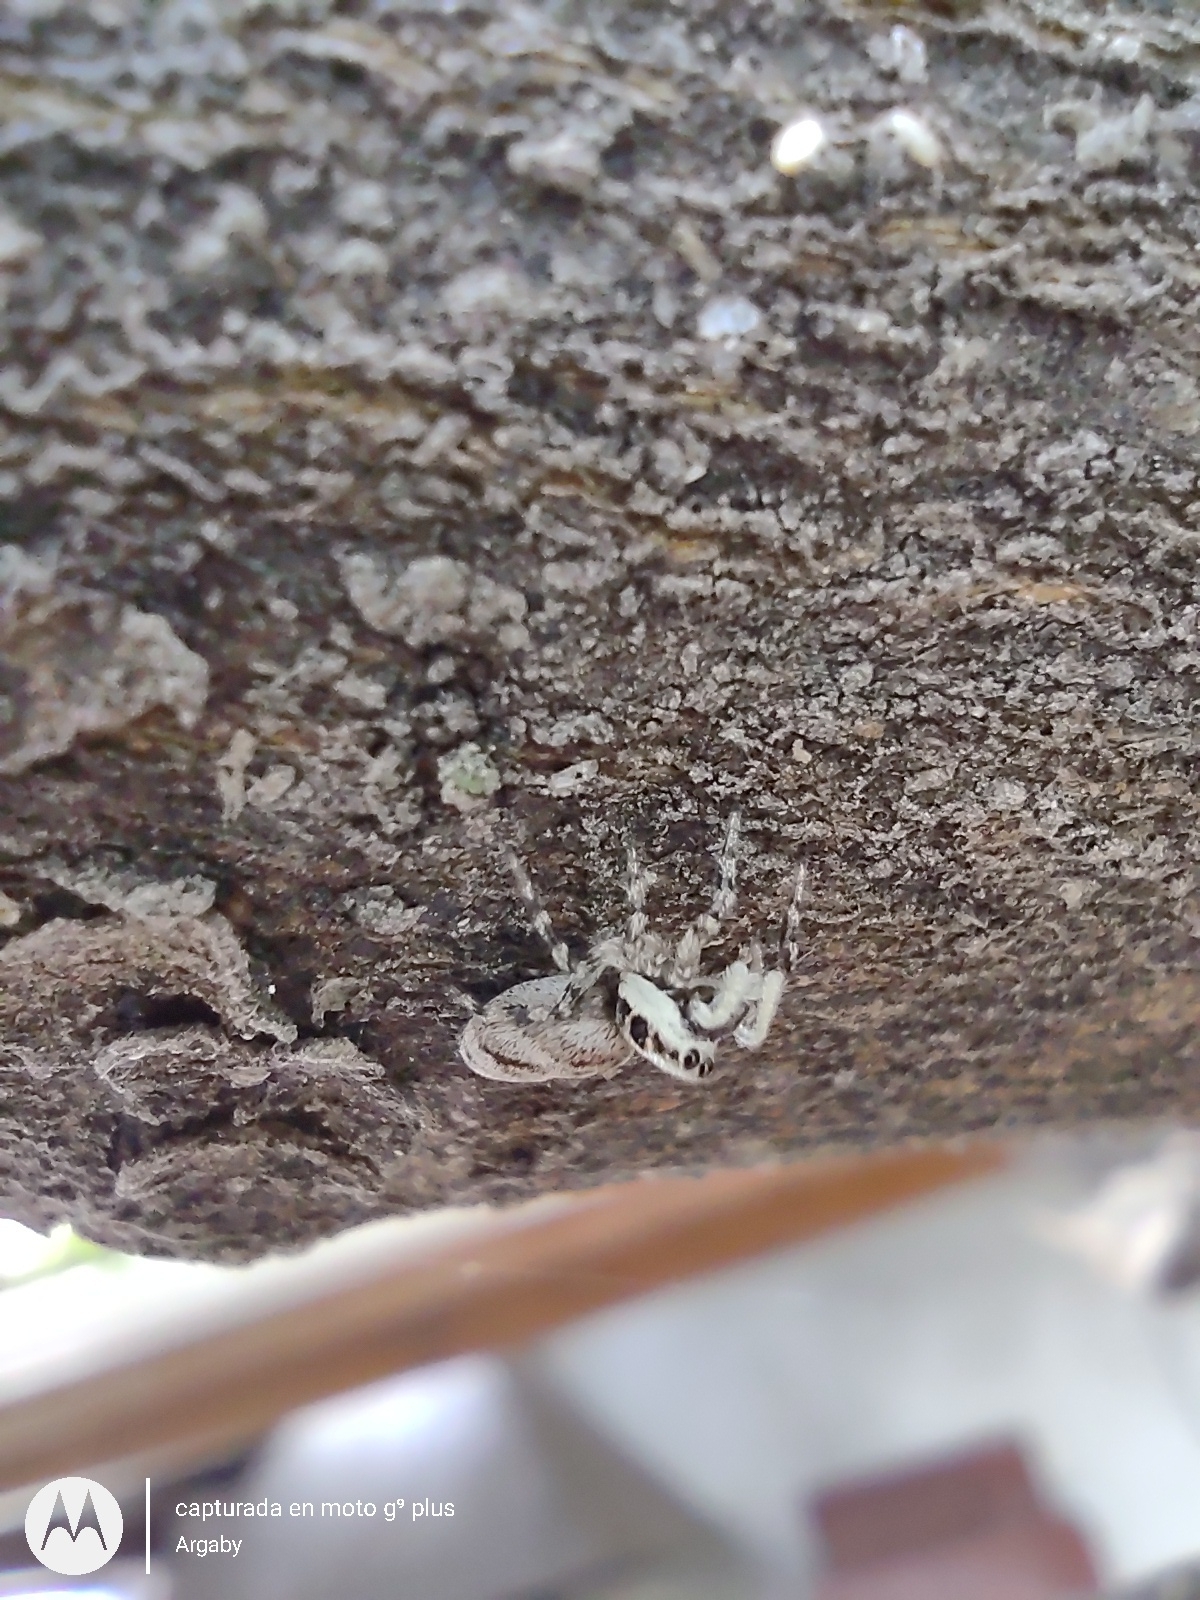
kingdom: Animalia
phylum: Arthropoda
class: Arachnida
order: Araneae
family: Salticidae
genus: Salticus
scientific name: Salticus mutabilis
